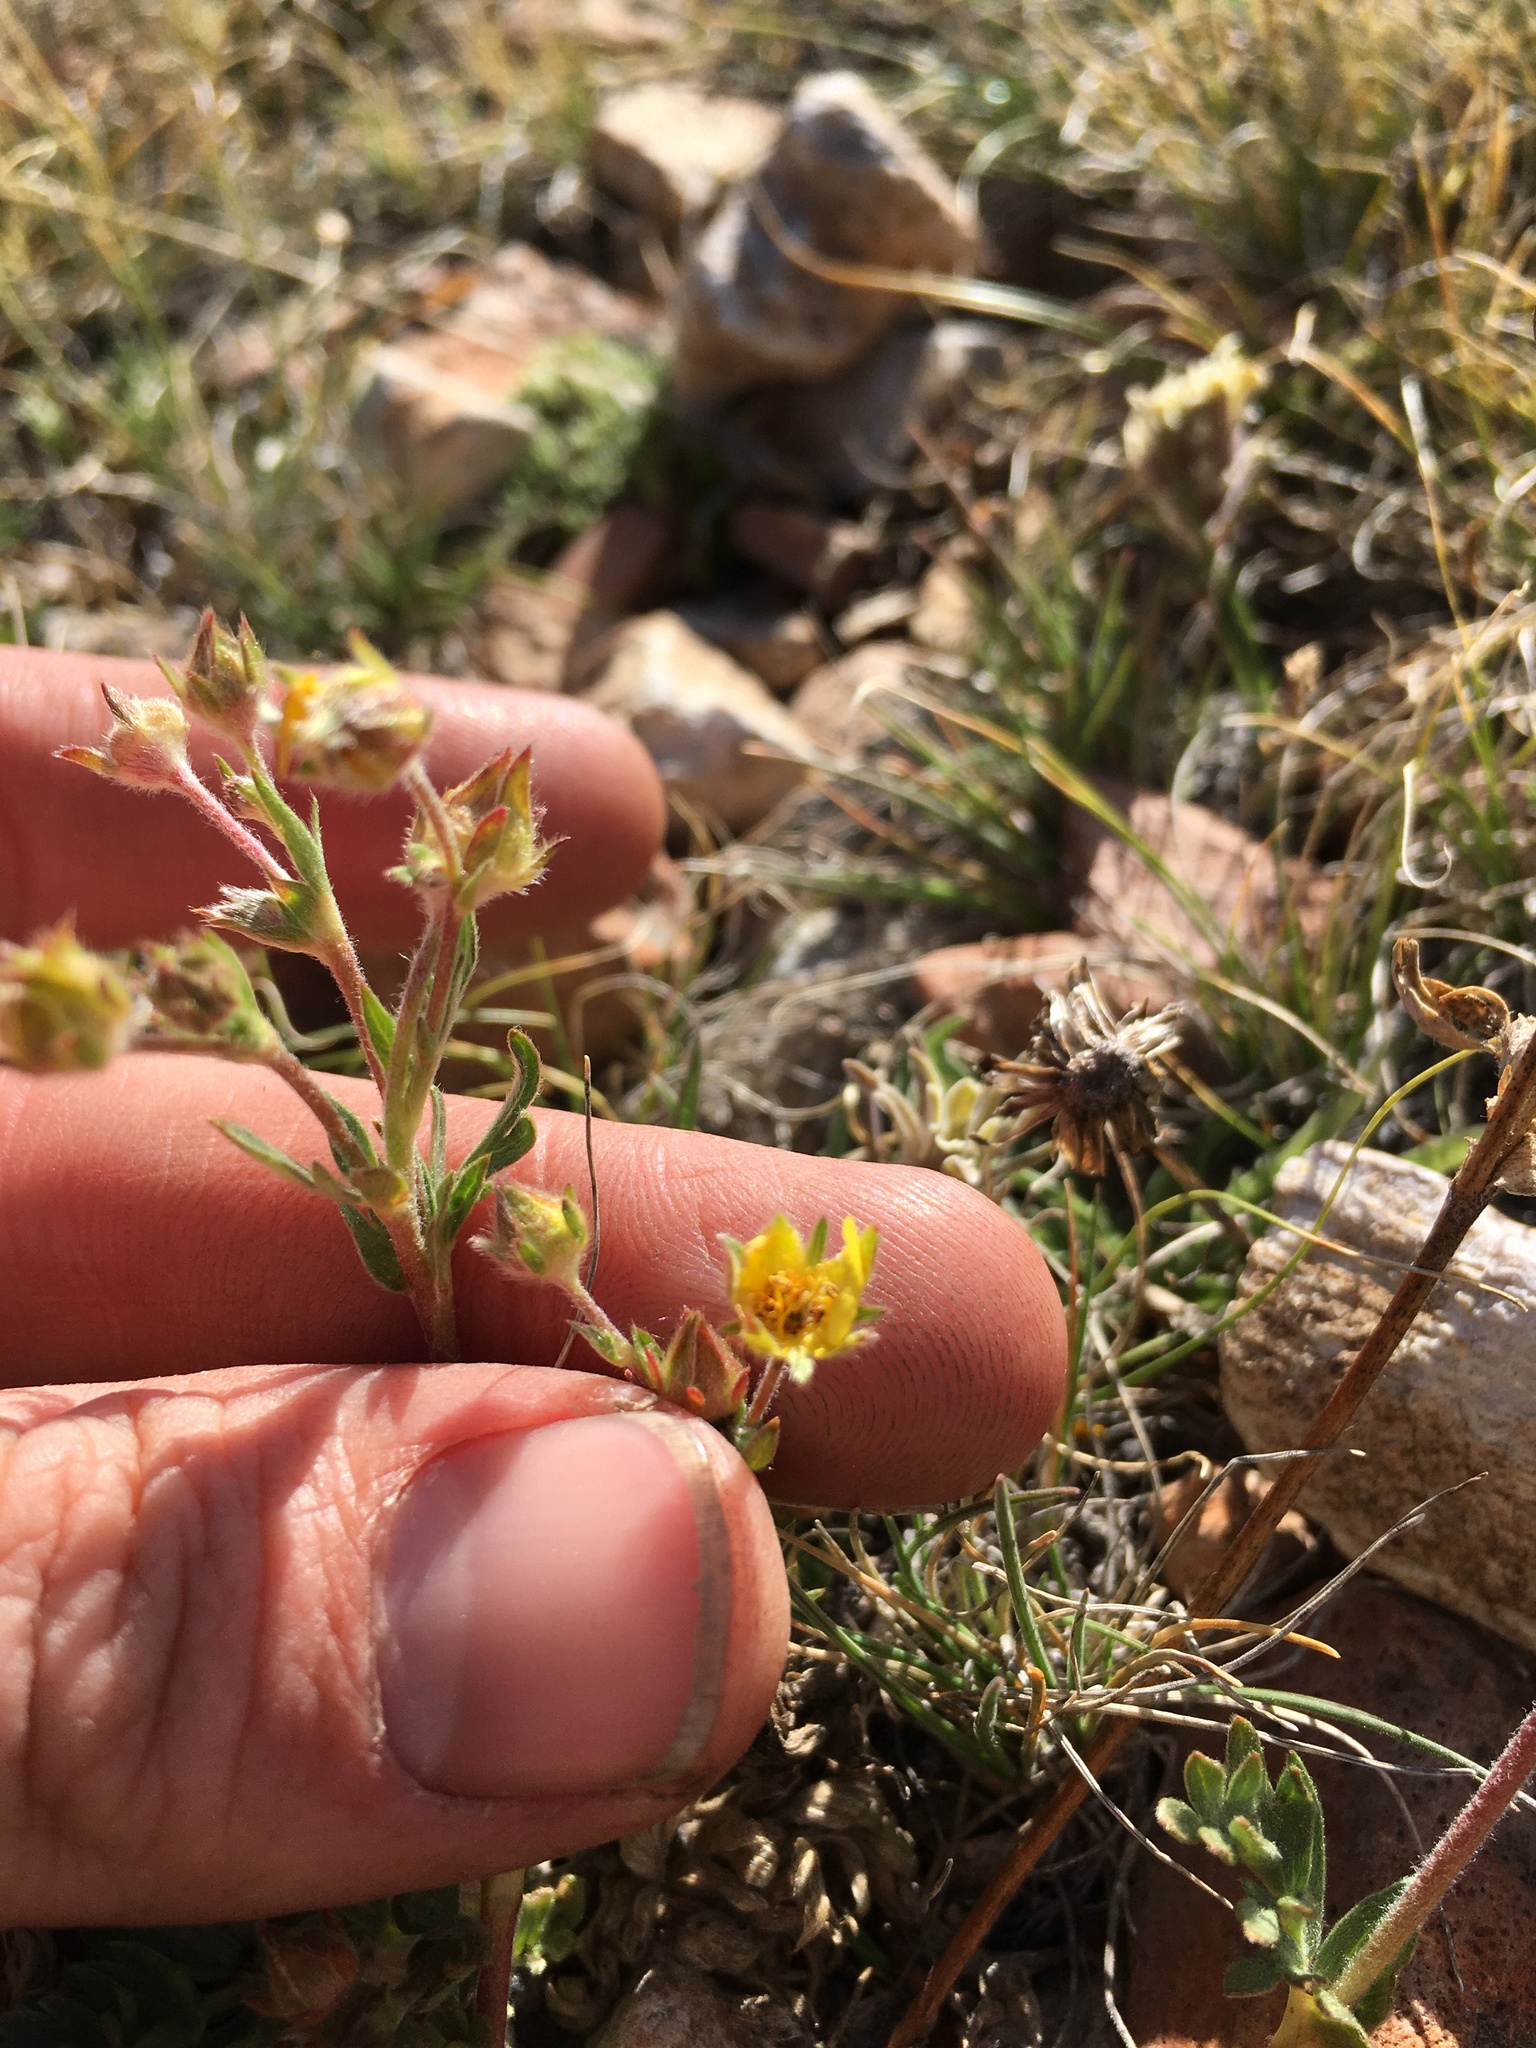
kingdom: Plantae
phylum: Tracheophyta
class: Magnoliopsida
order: Rosales
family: Rosaceae
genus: Potentilla
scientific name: Potentilla breweri
